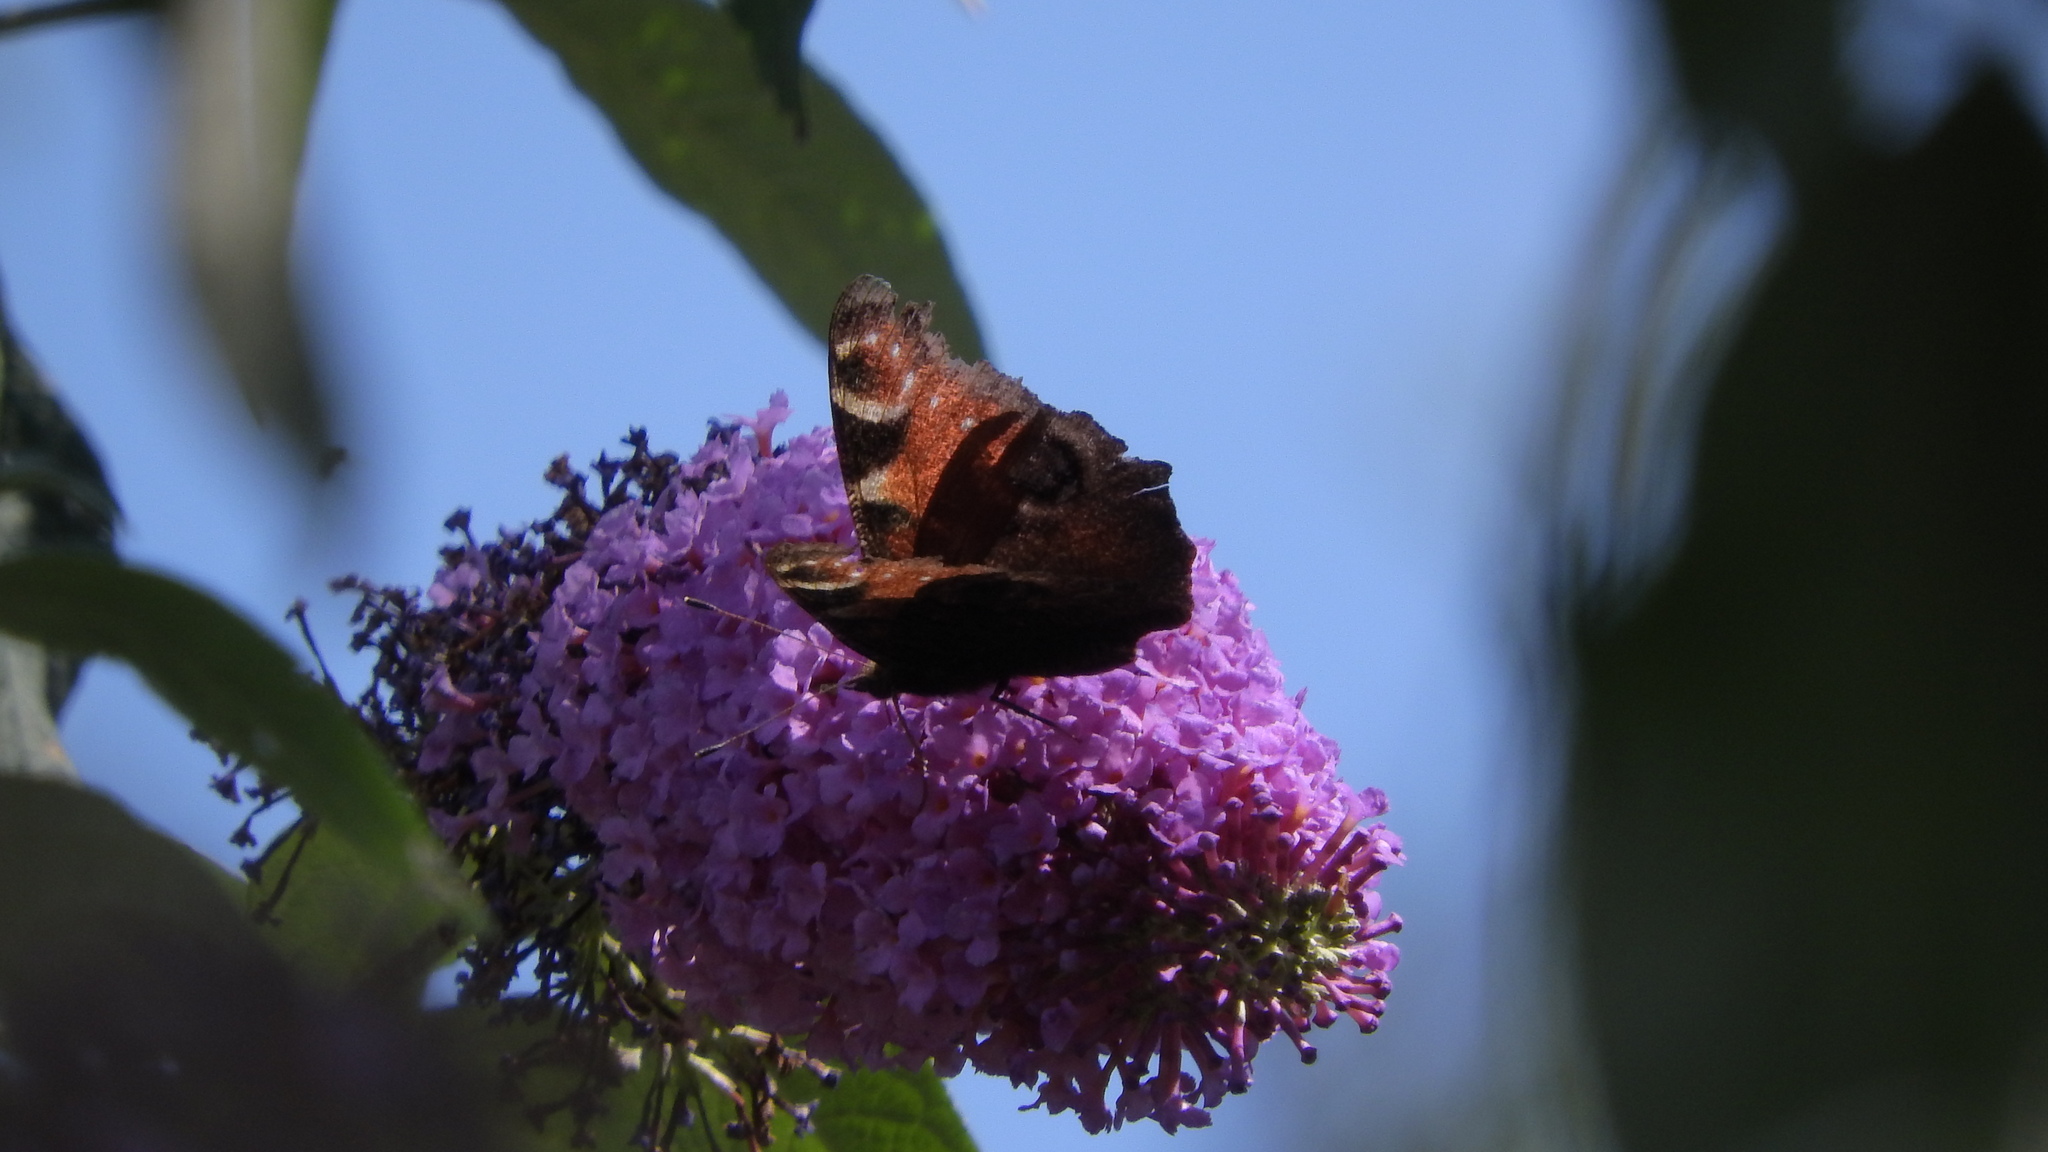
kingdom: Animalia
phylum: Arthropoda
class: Insecta
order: Lepidoptera
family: Nymphalidae
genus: Aglais
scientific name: Aglais io
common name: Peacock
